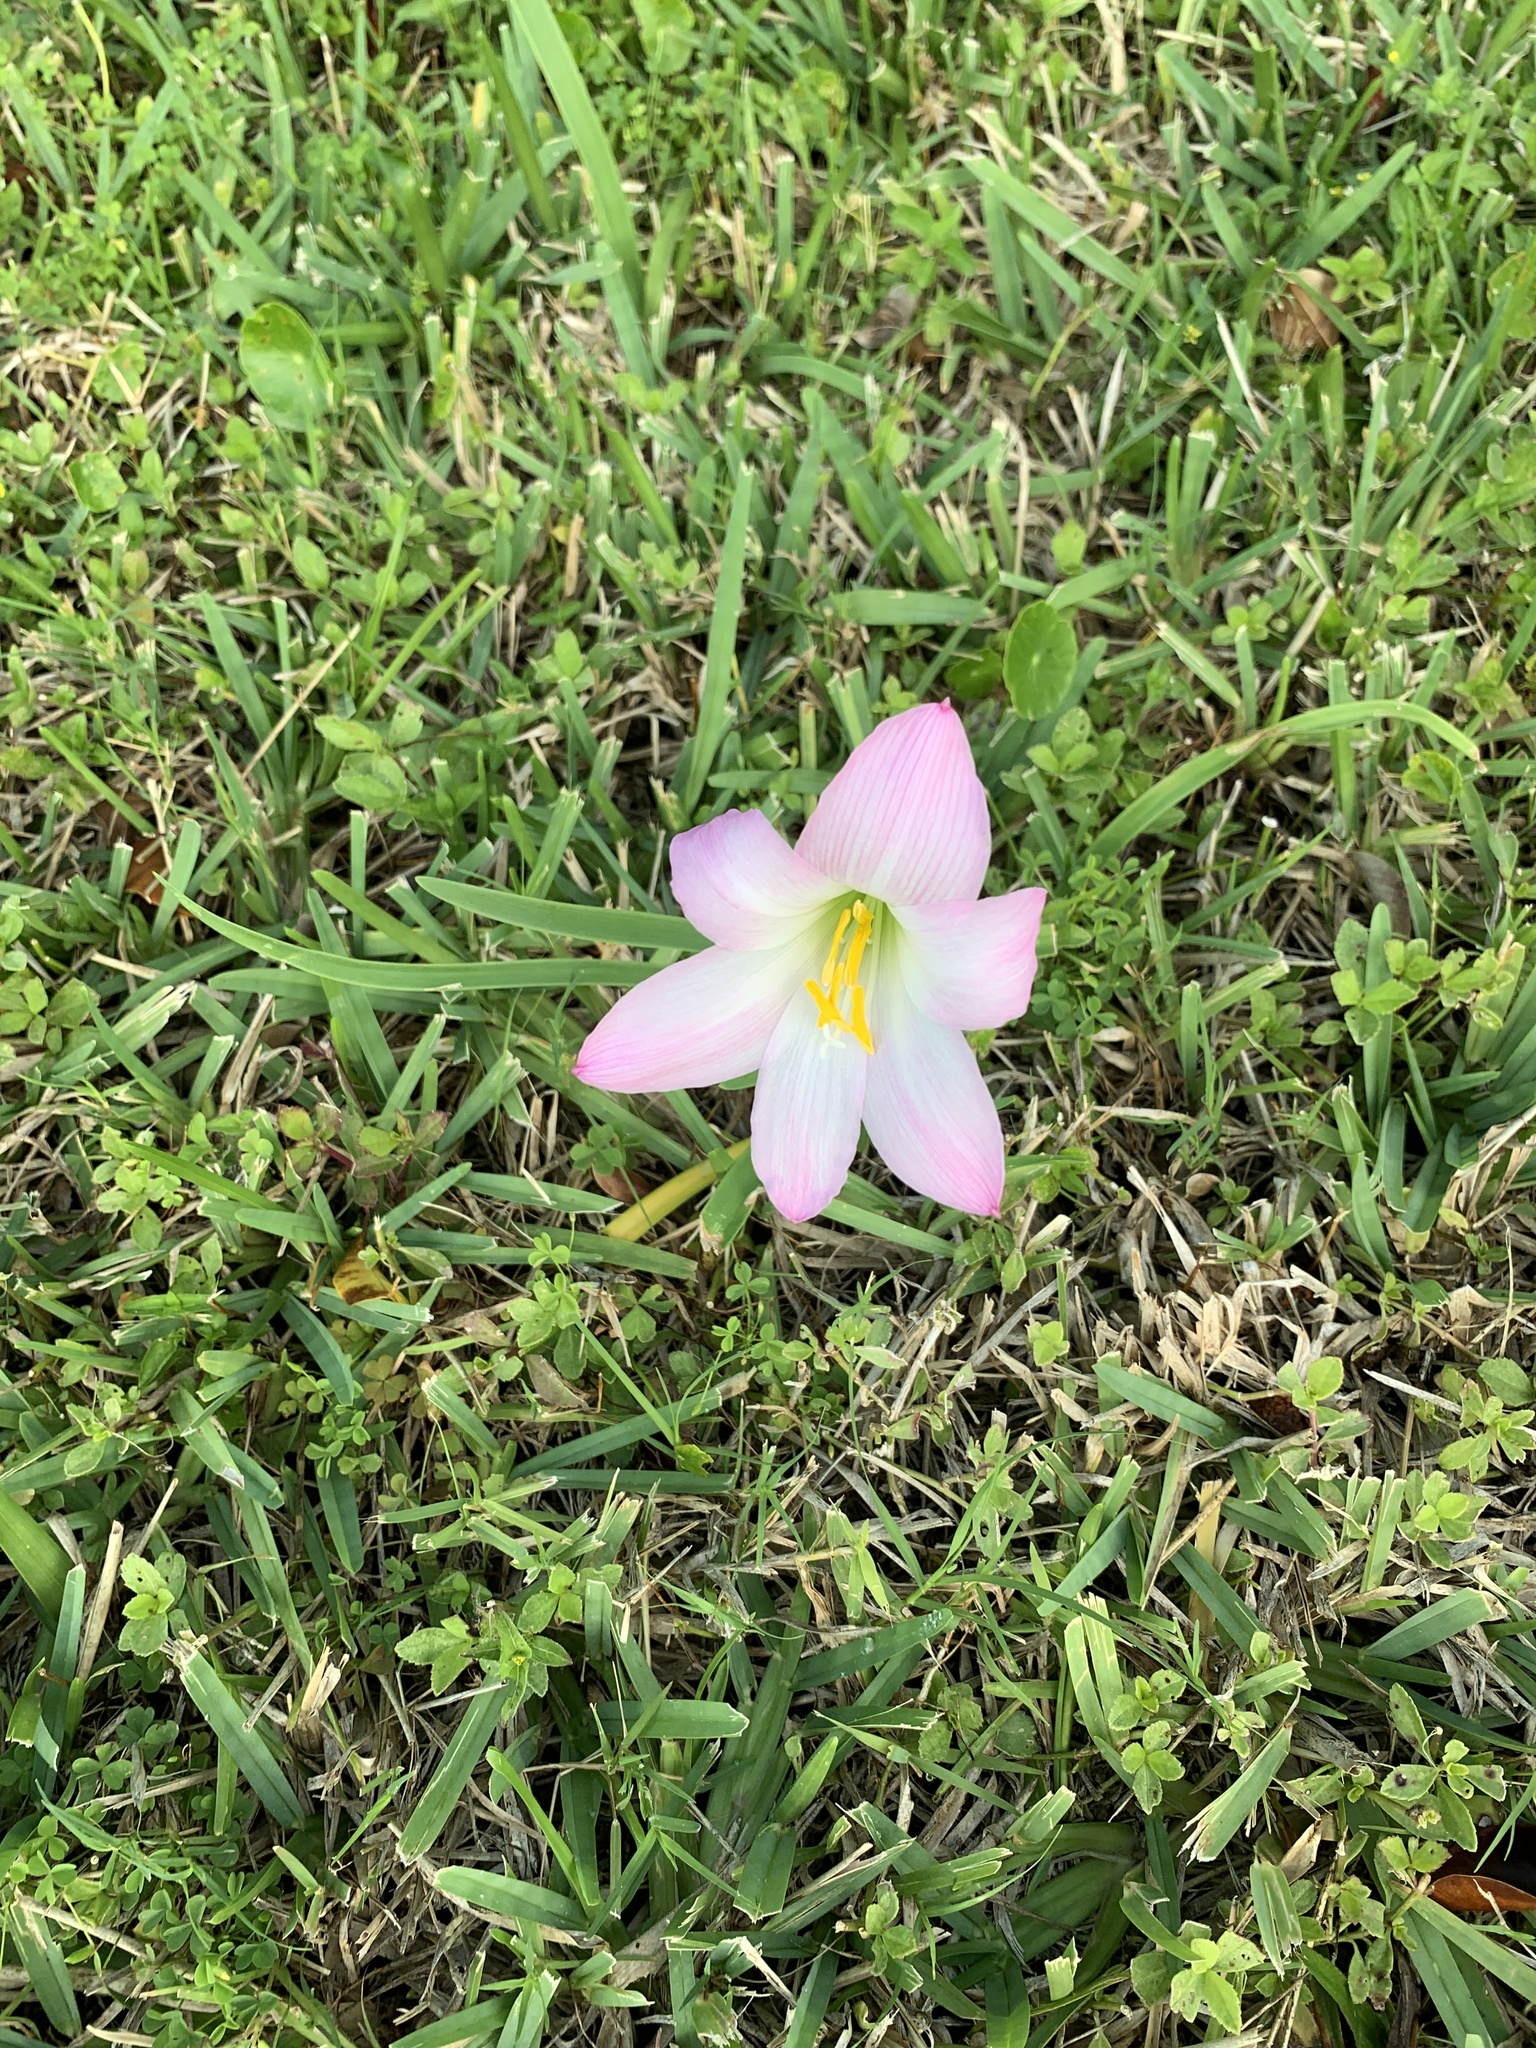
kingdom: Plantae
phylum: Tracheophyta
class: Liliopsida
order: Asparagales
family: Amaryllidaceae
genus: Zephyranthes
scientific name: Zephyranthes robusta
